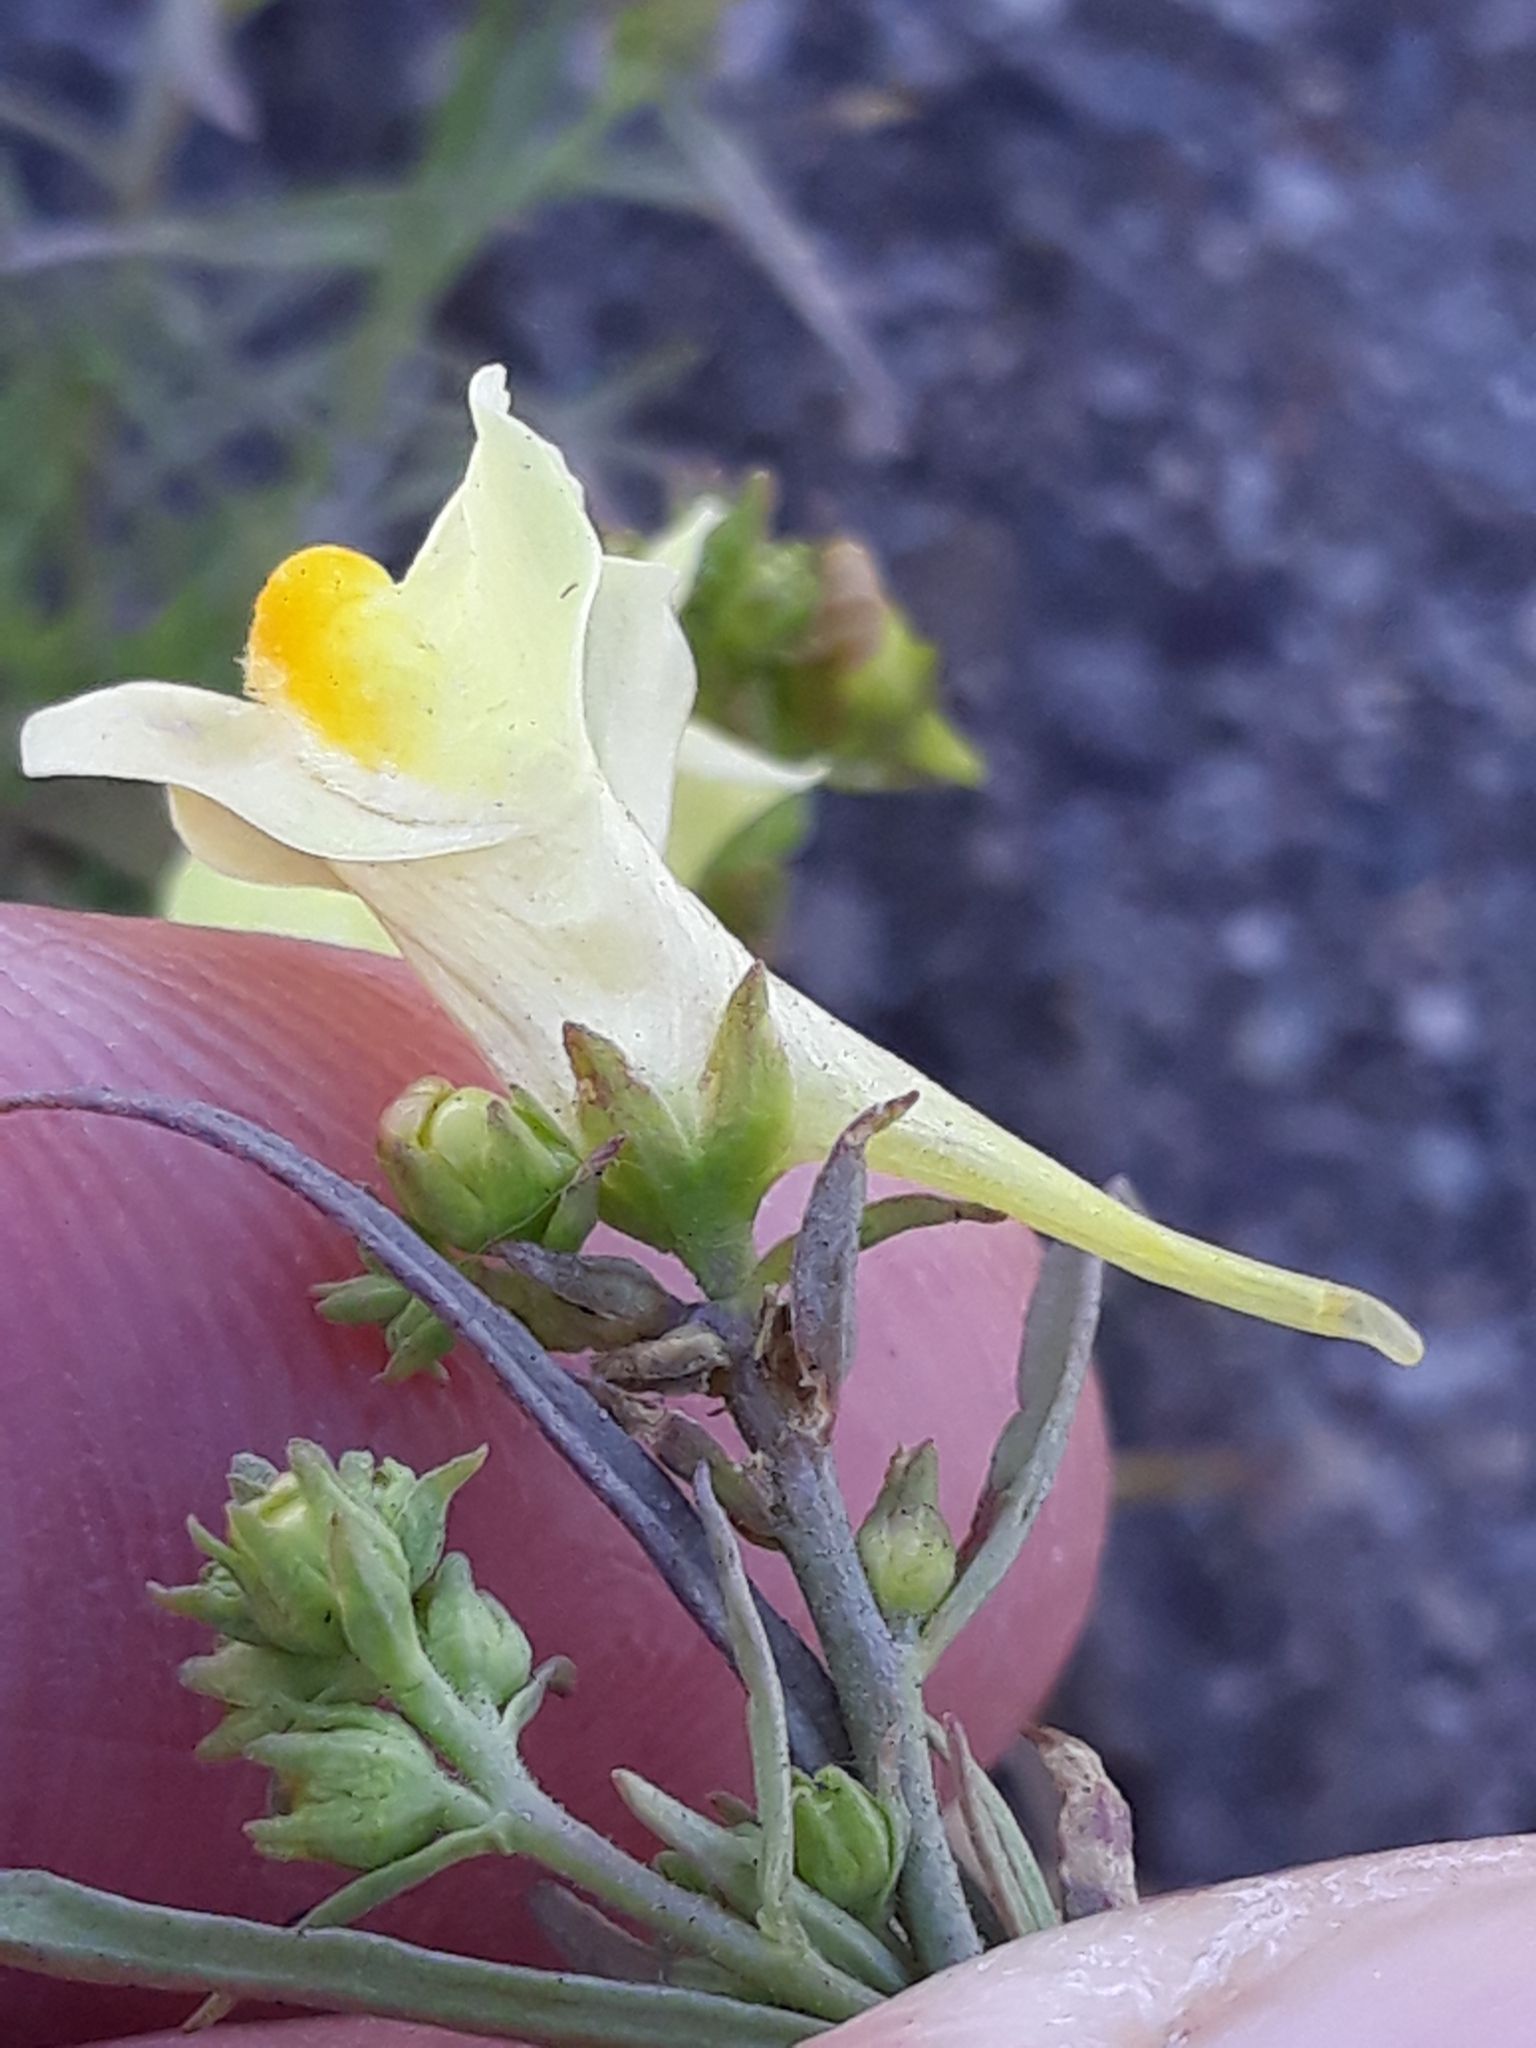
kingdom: Plantae
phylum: Tracheophyta
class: Magnoliopsida
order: Lamiales
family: Plantaginaceae
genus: Linaria
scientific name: Linaria vulgaris
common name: Butter and eggs
